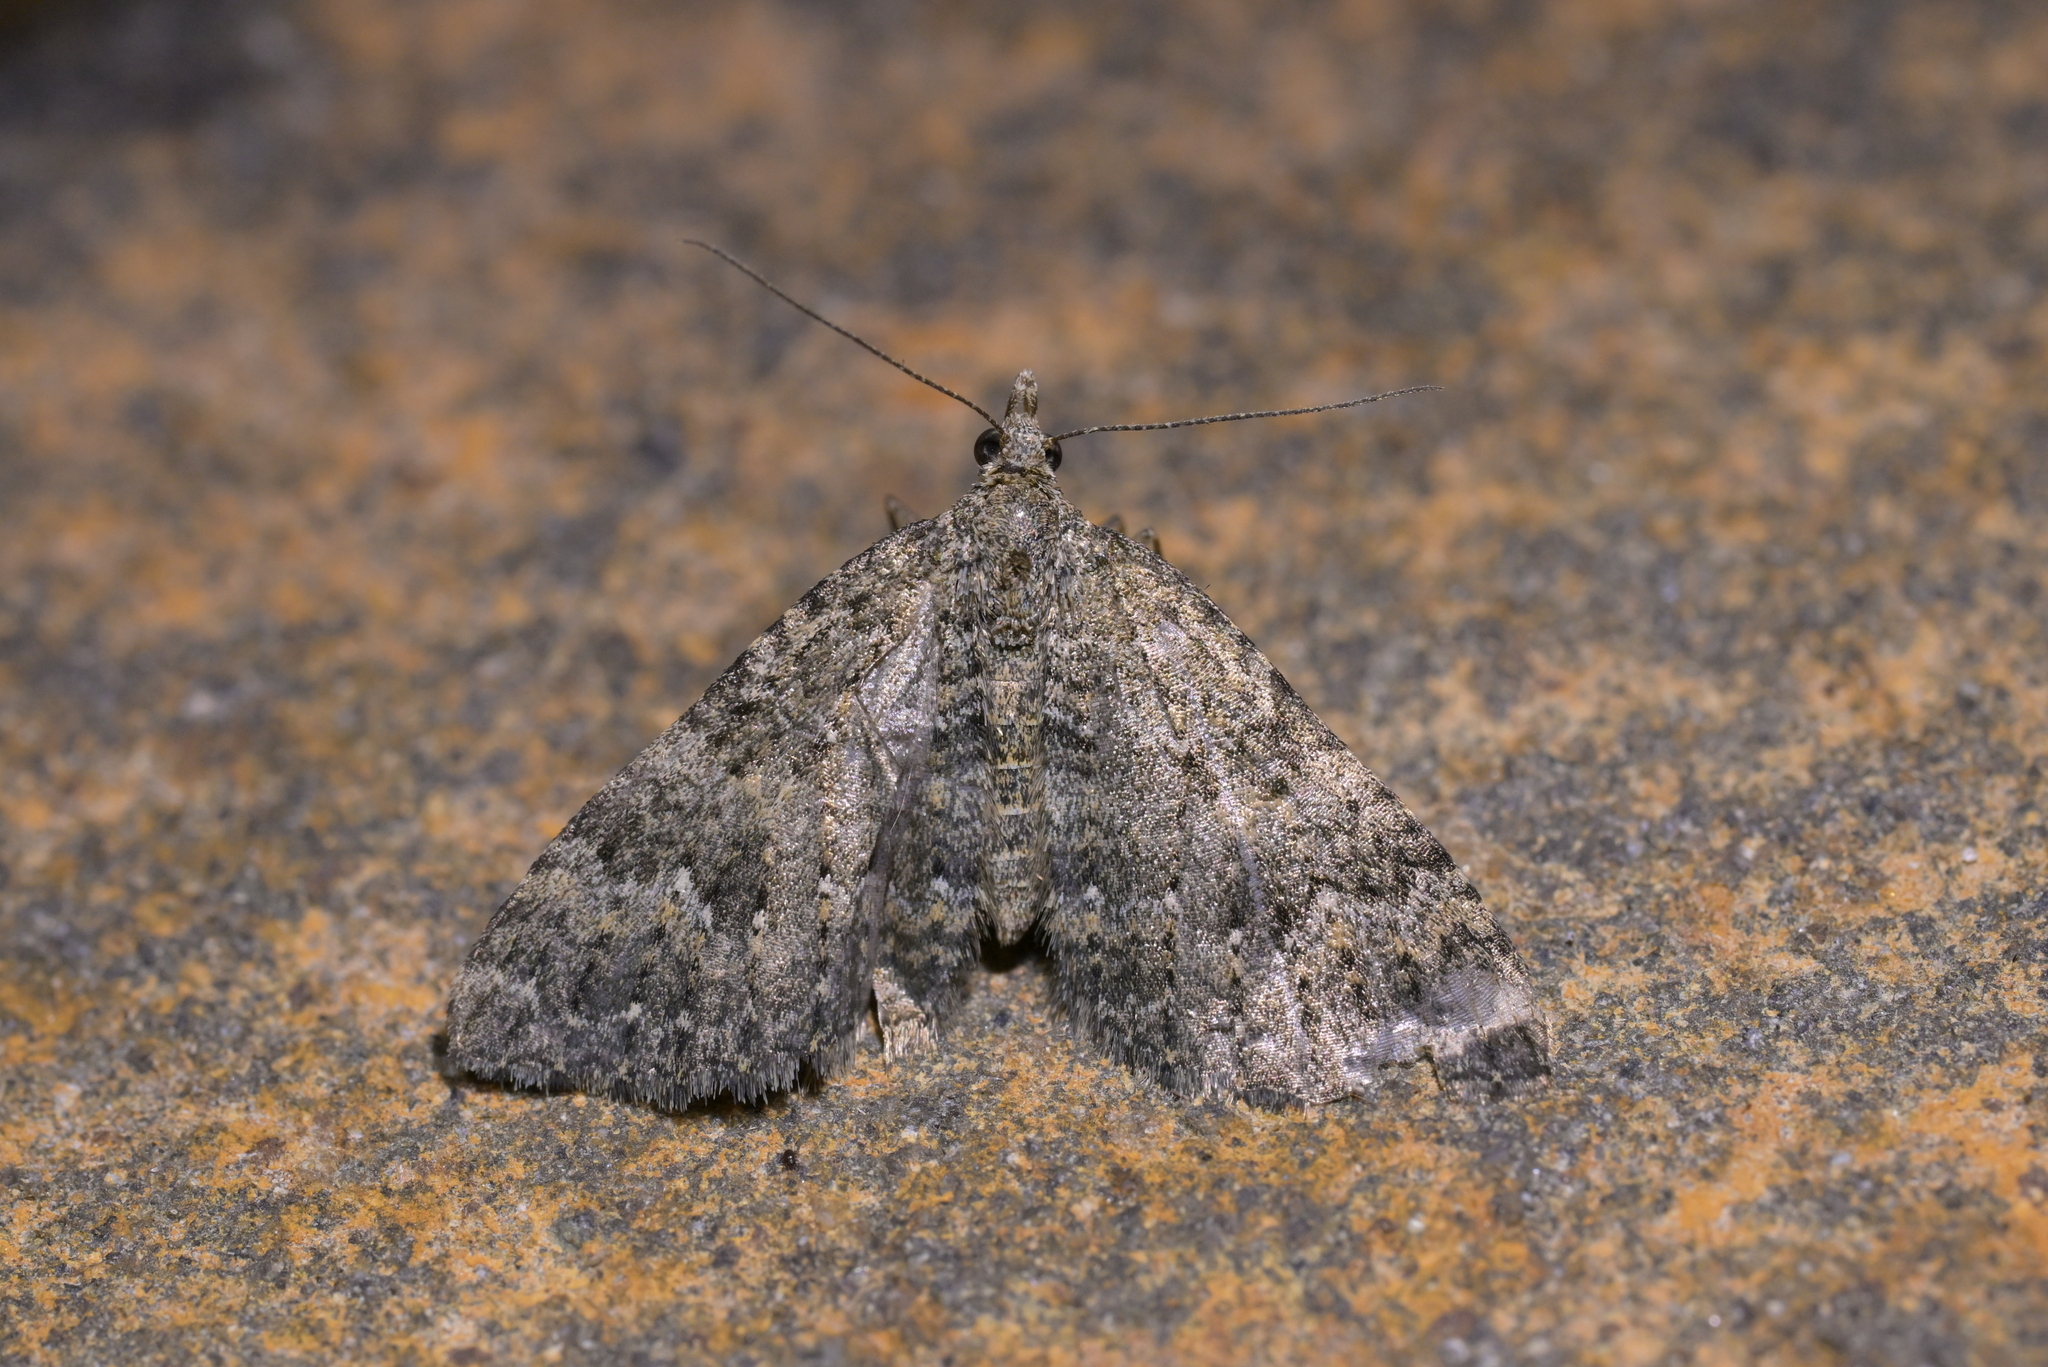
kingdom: Animalia
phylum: Arthropoda
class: Insecta
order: Lepidoptera
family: Geometridae
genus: Helastia
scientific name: Helastia semisignata
